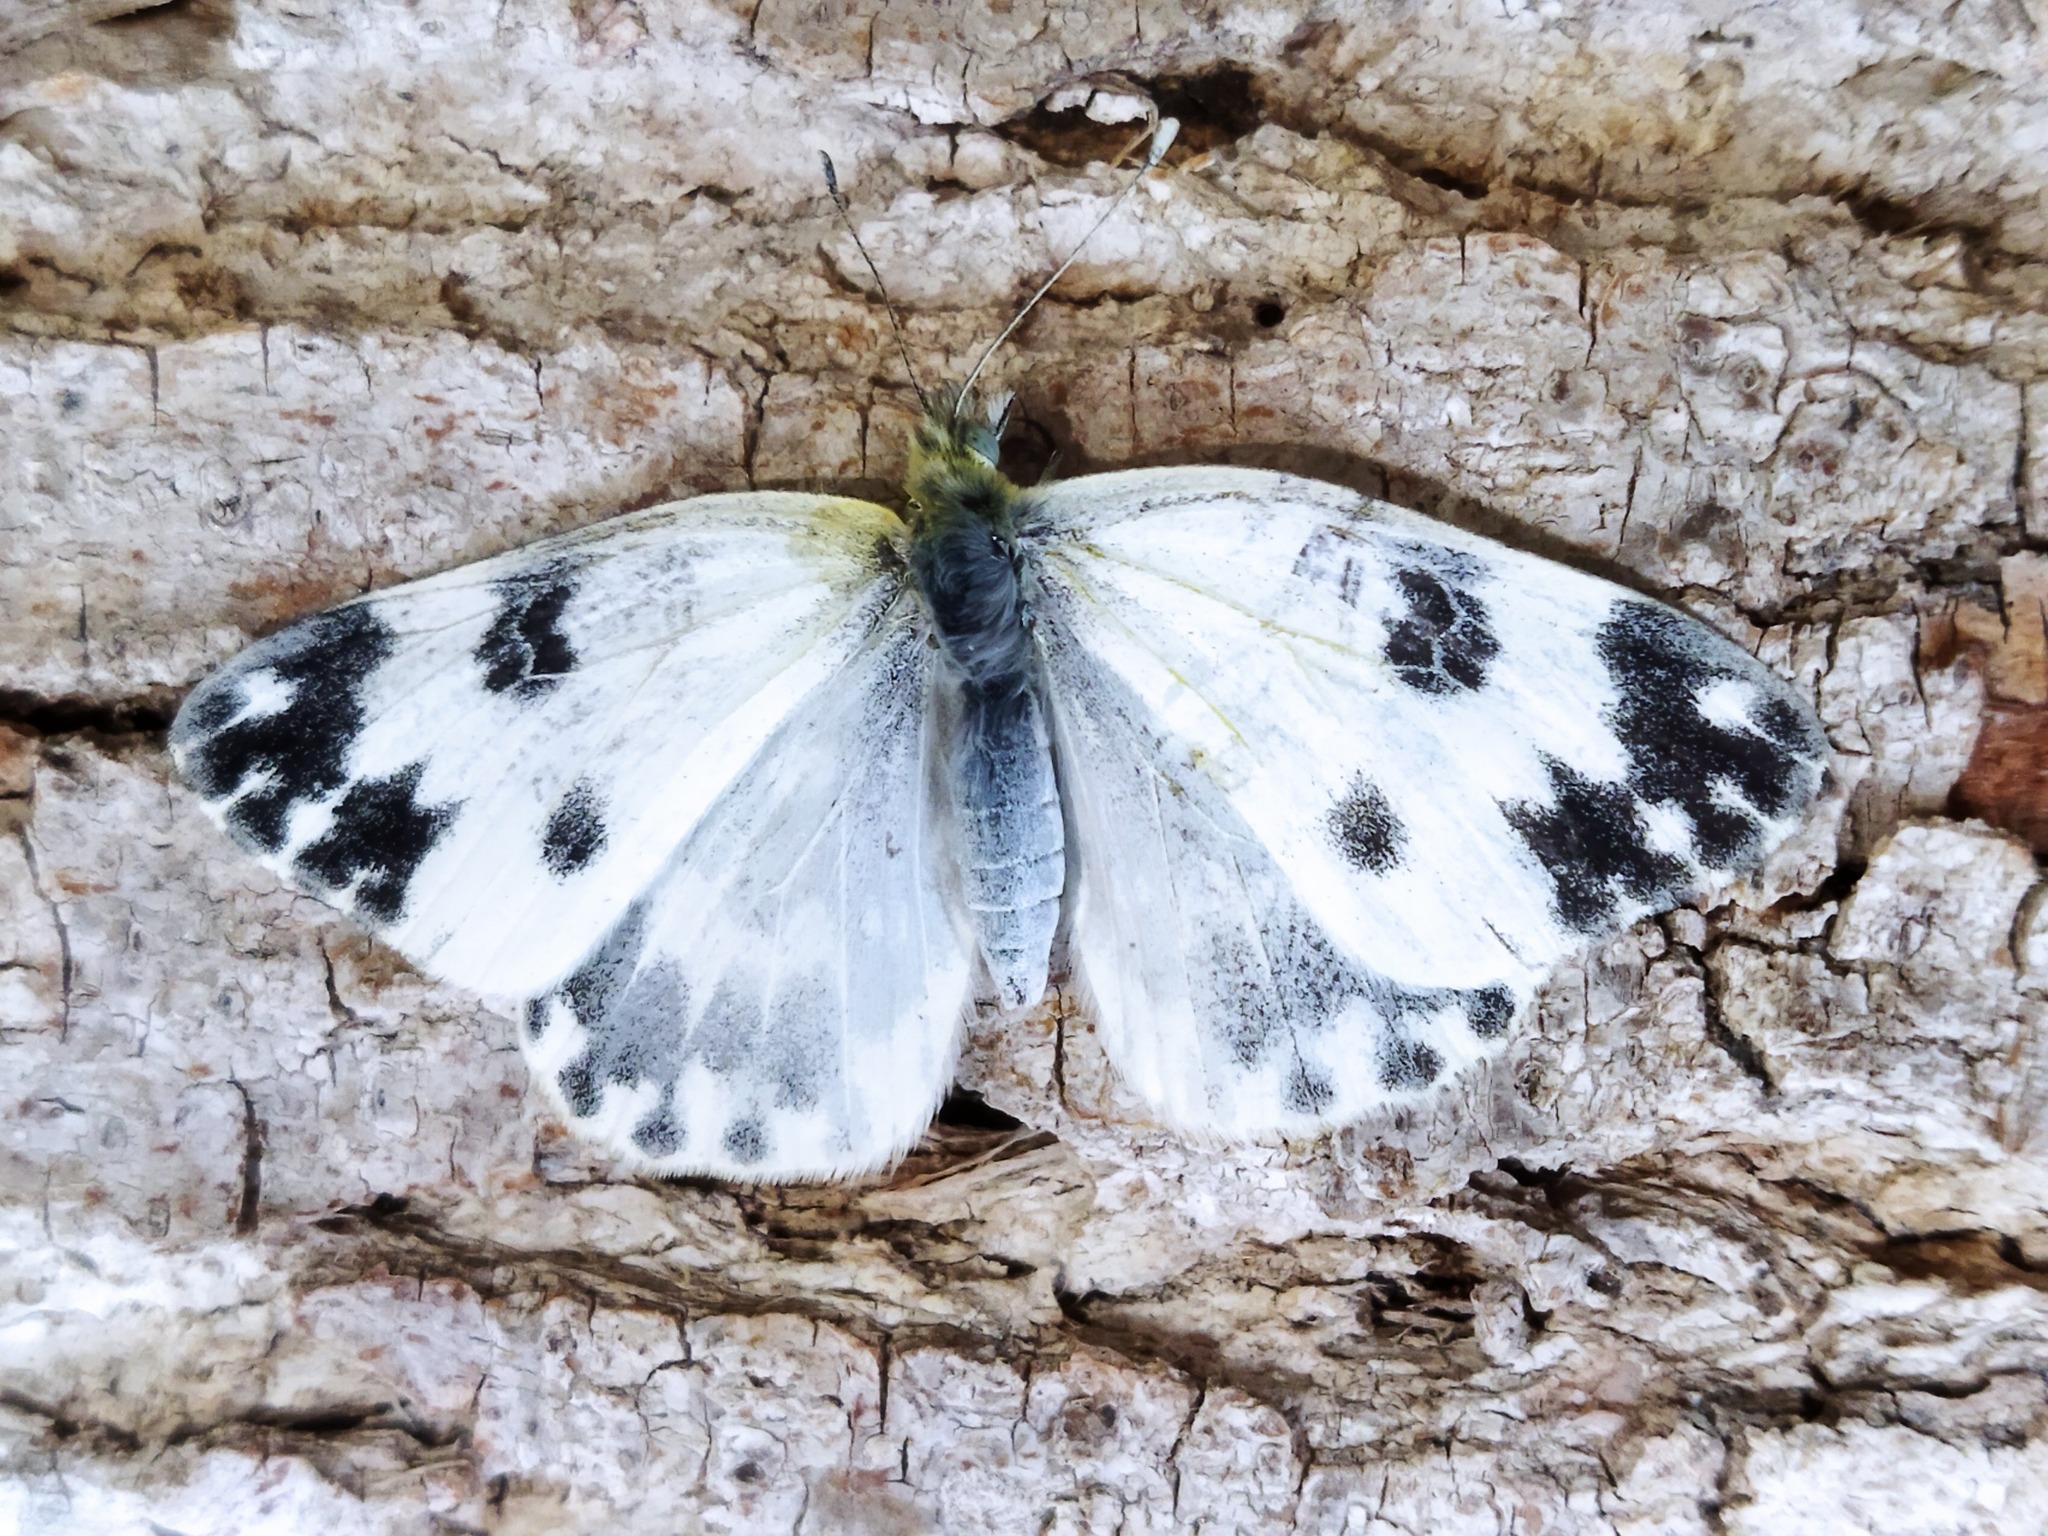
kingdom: Animalia
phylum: Arthropoda
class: Insecta
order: Lepidoptera
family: Pieridae
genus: Pontia
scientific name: Pontia edusa
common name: Eastern bath white
